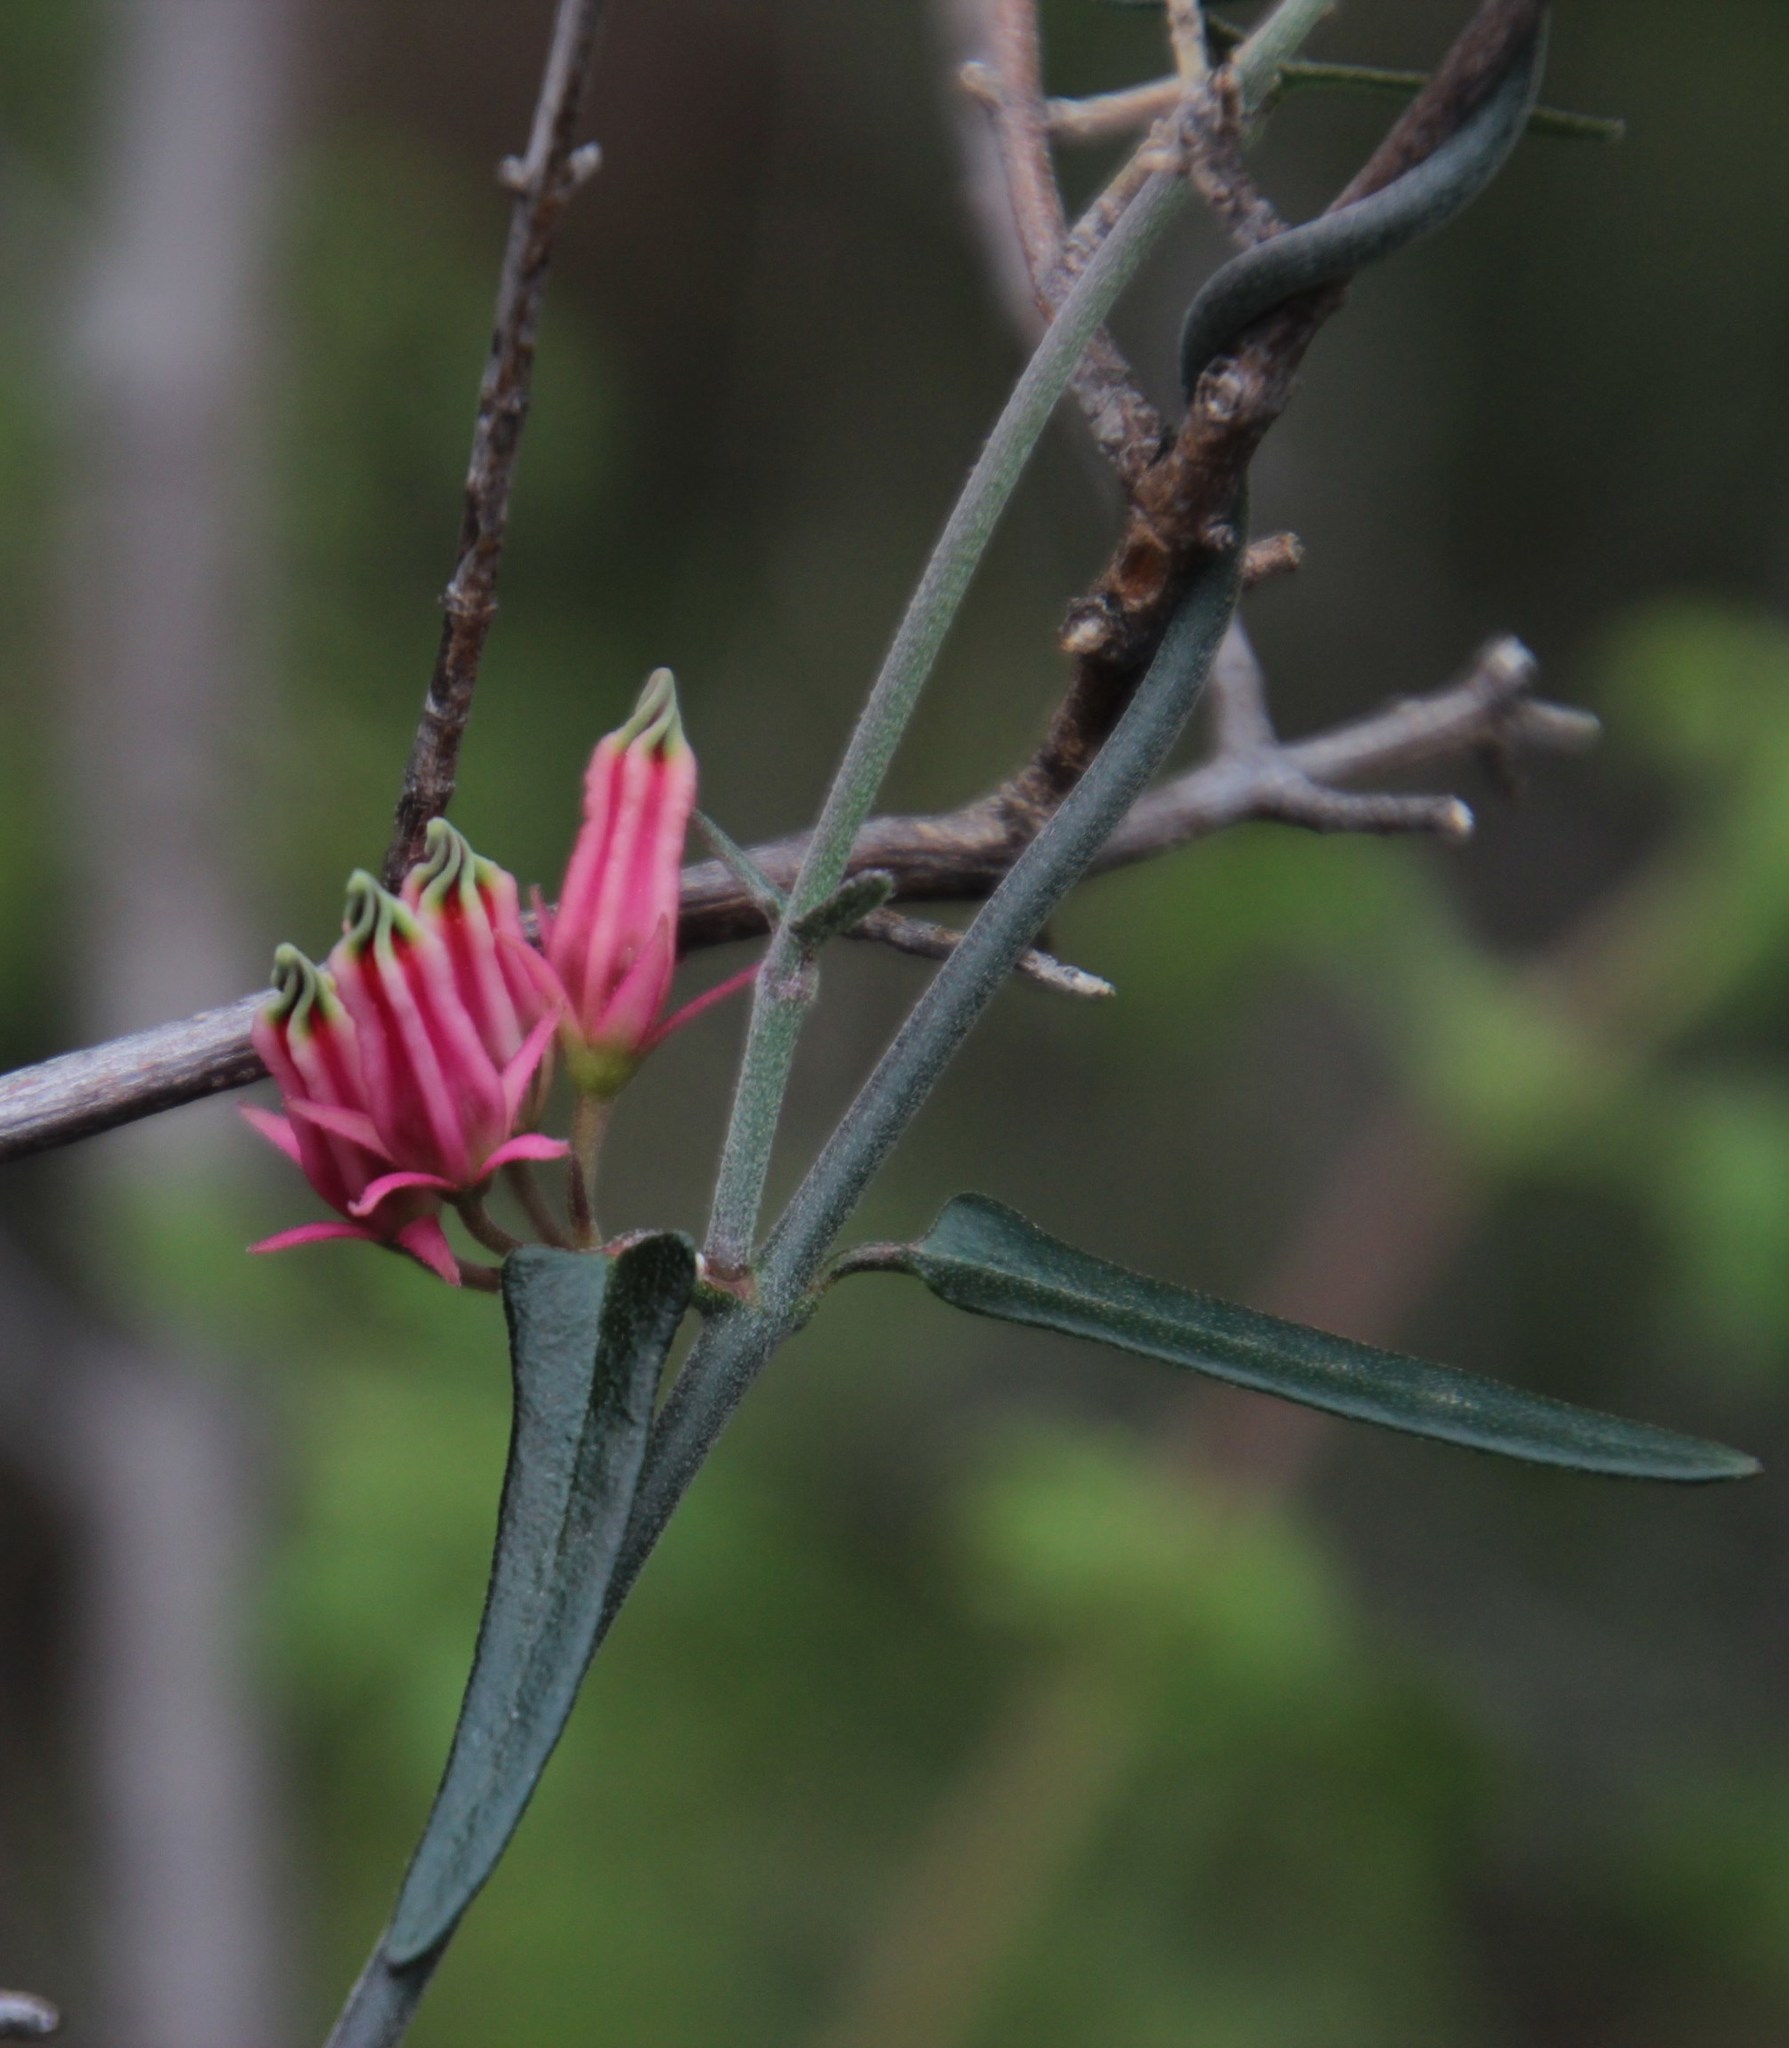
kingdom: Plantae
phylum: Tracheophyta
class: Magnoliopsida
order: Gentianales
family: Apocynaceae
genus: Microloma
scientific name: Microloma sagittatum
